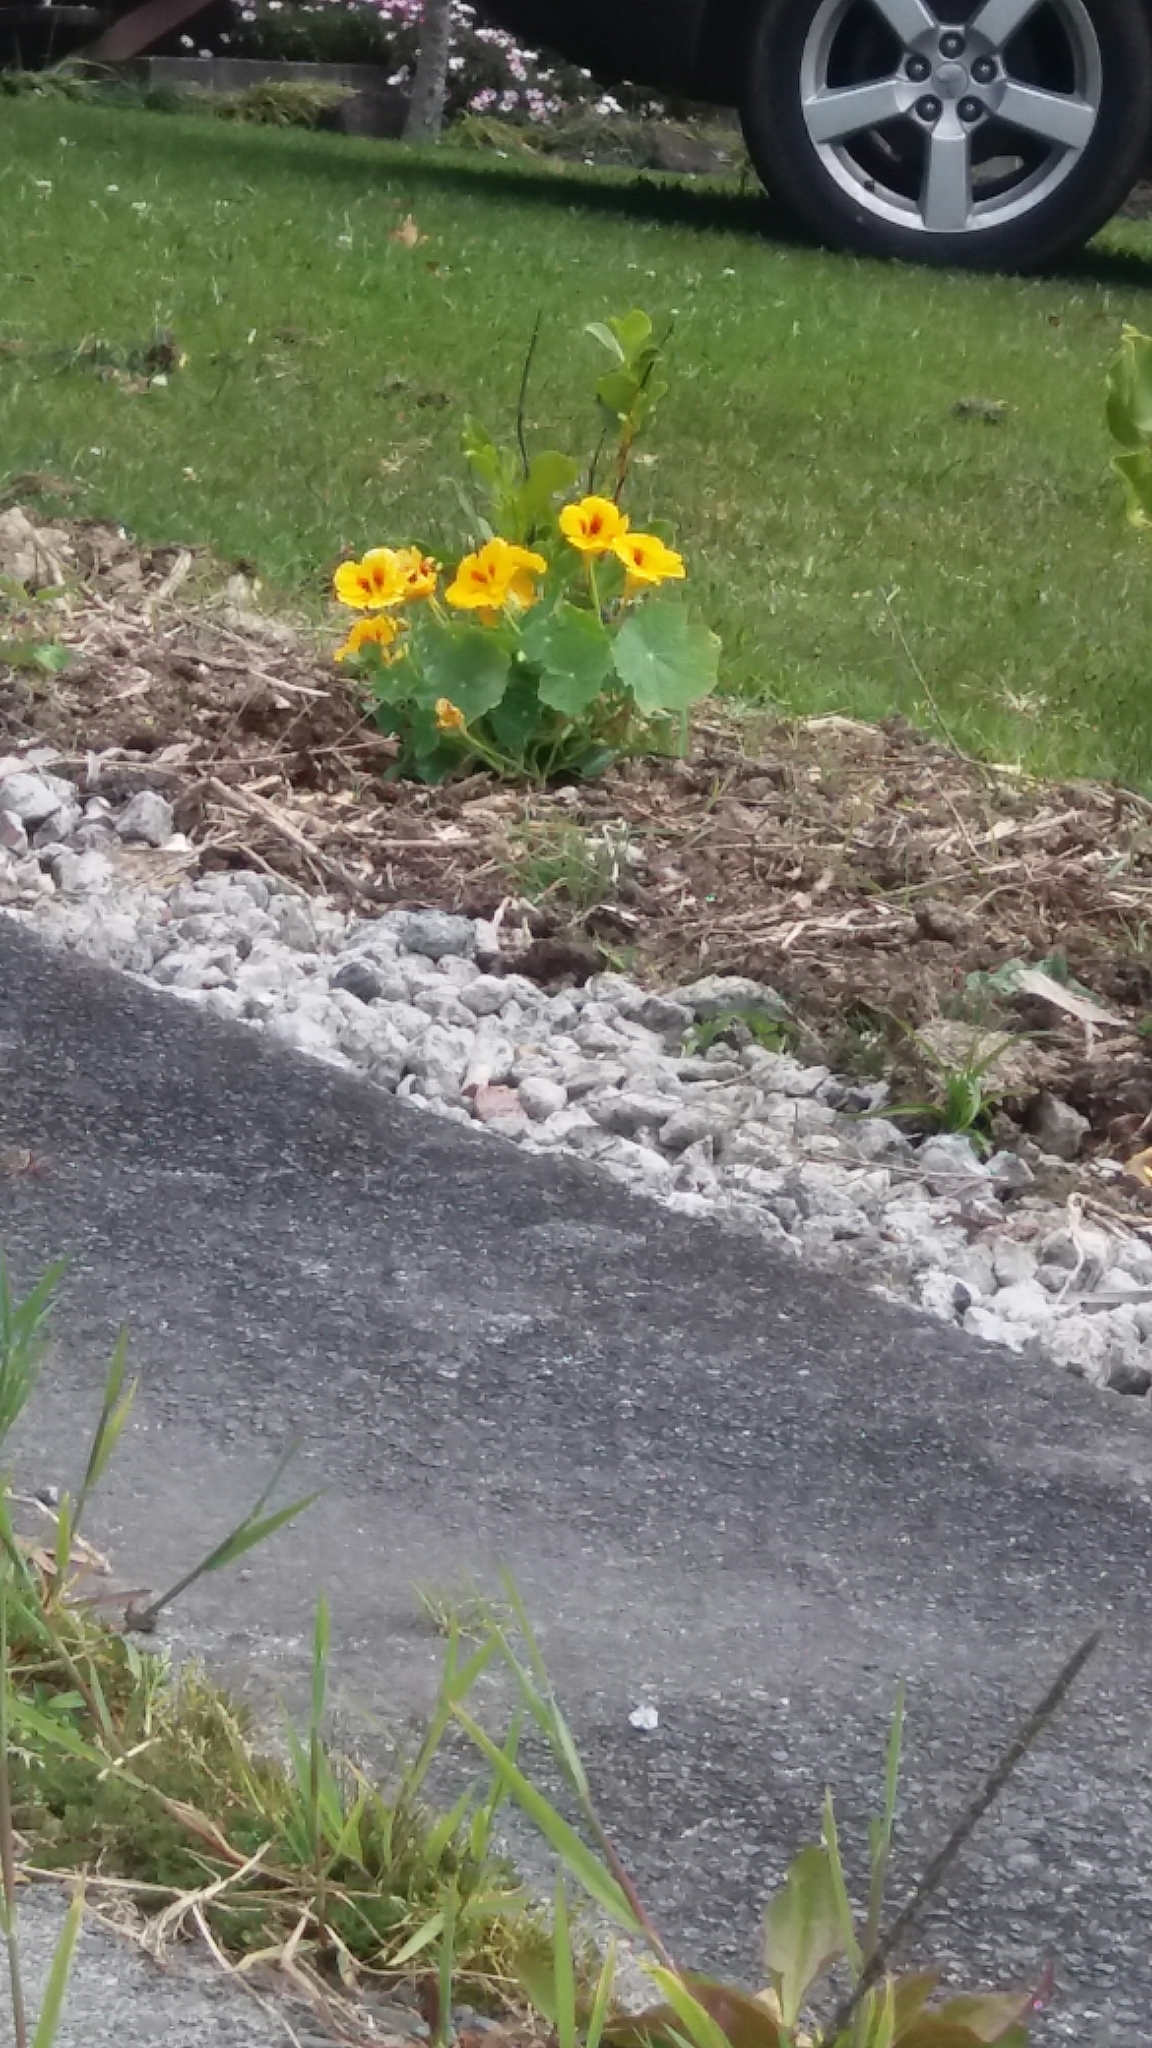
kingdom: Plantae
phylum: Tracheophyta
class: Magnoliopsida
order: Brassicales
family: Tropaeolaceae
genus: Tropaeolum
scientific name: Tropaeolum majus
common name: Nasturtium
